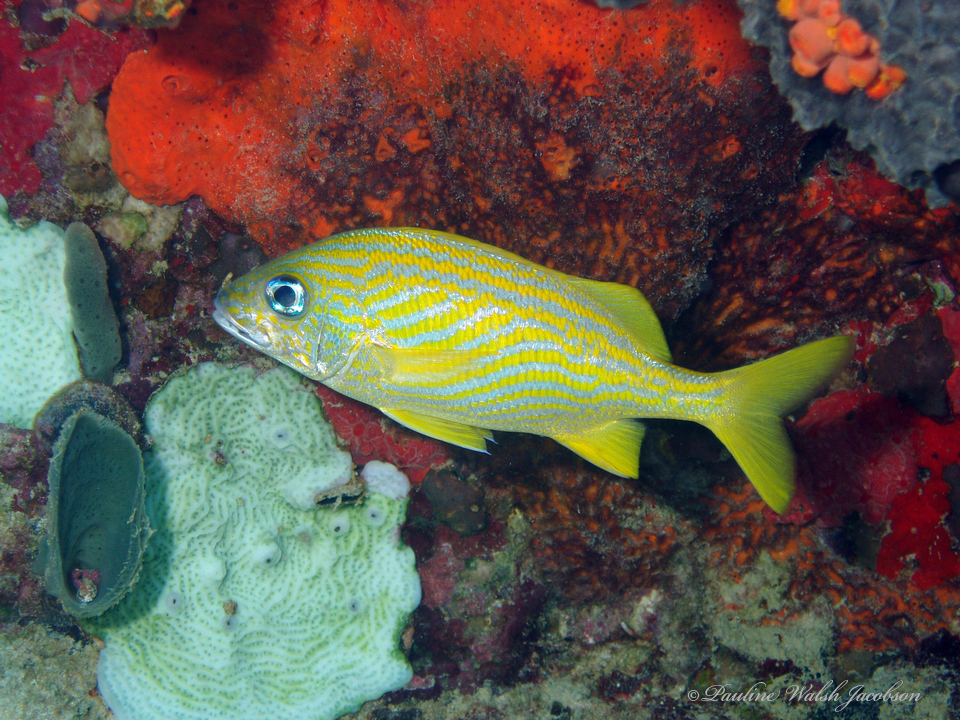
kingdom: Animalia
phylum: Chordata
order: Perciformes
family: Haemulidae
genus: Haemulon
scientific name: Haemulon flavolineatum
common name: French grunt
